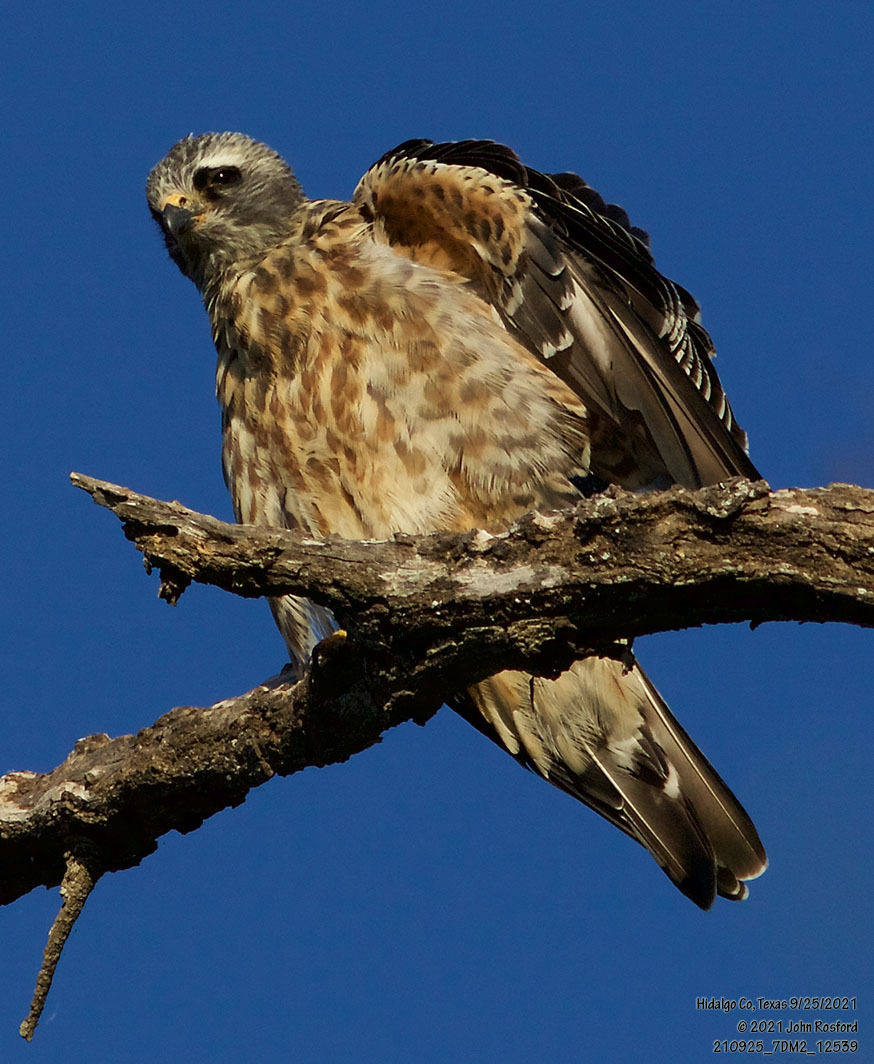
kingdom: Animalia
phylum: Chordata
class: Aves
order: Accipitriformes
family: Accipitridae
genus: Ictinia
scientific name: Ictinia mississippiensis
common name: Mississippi kite
